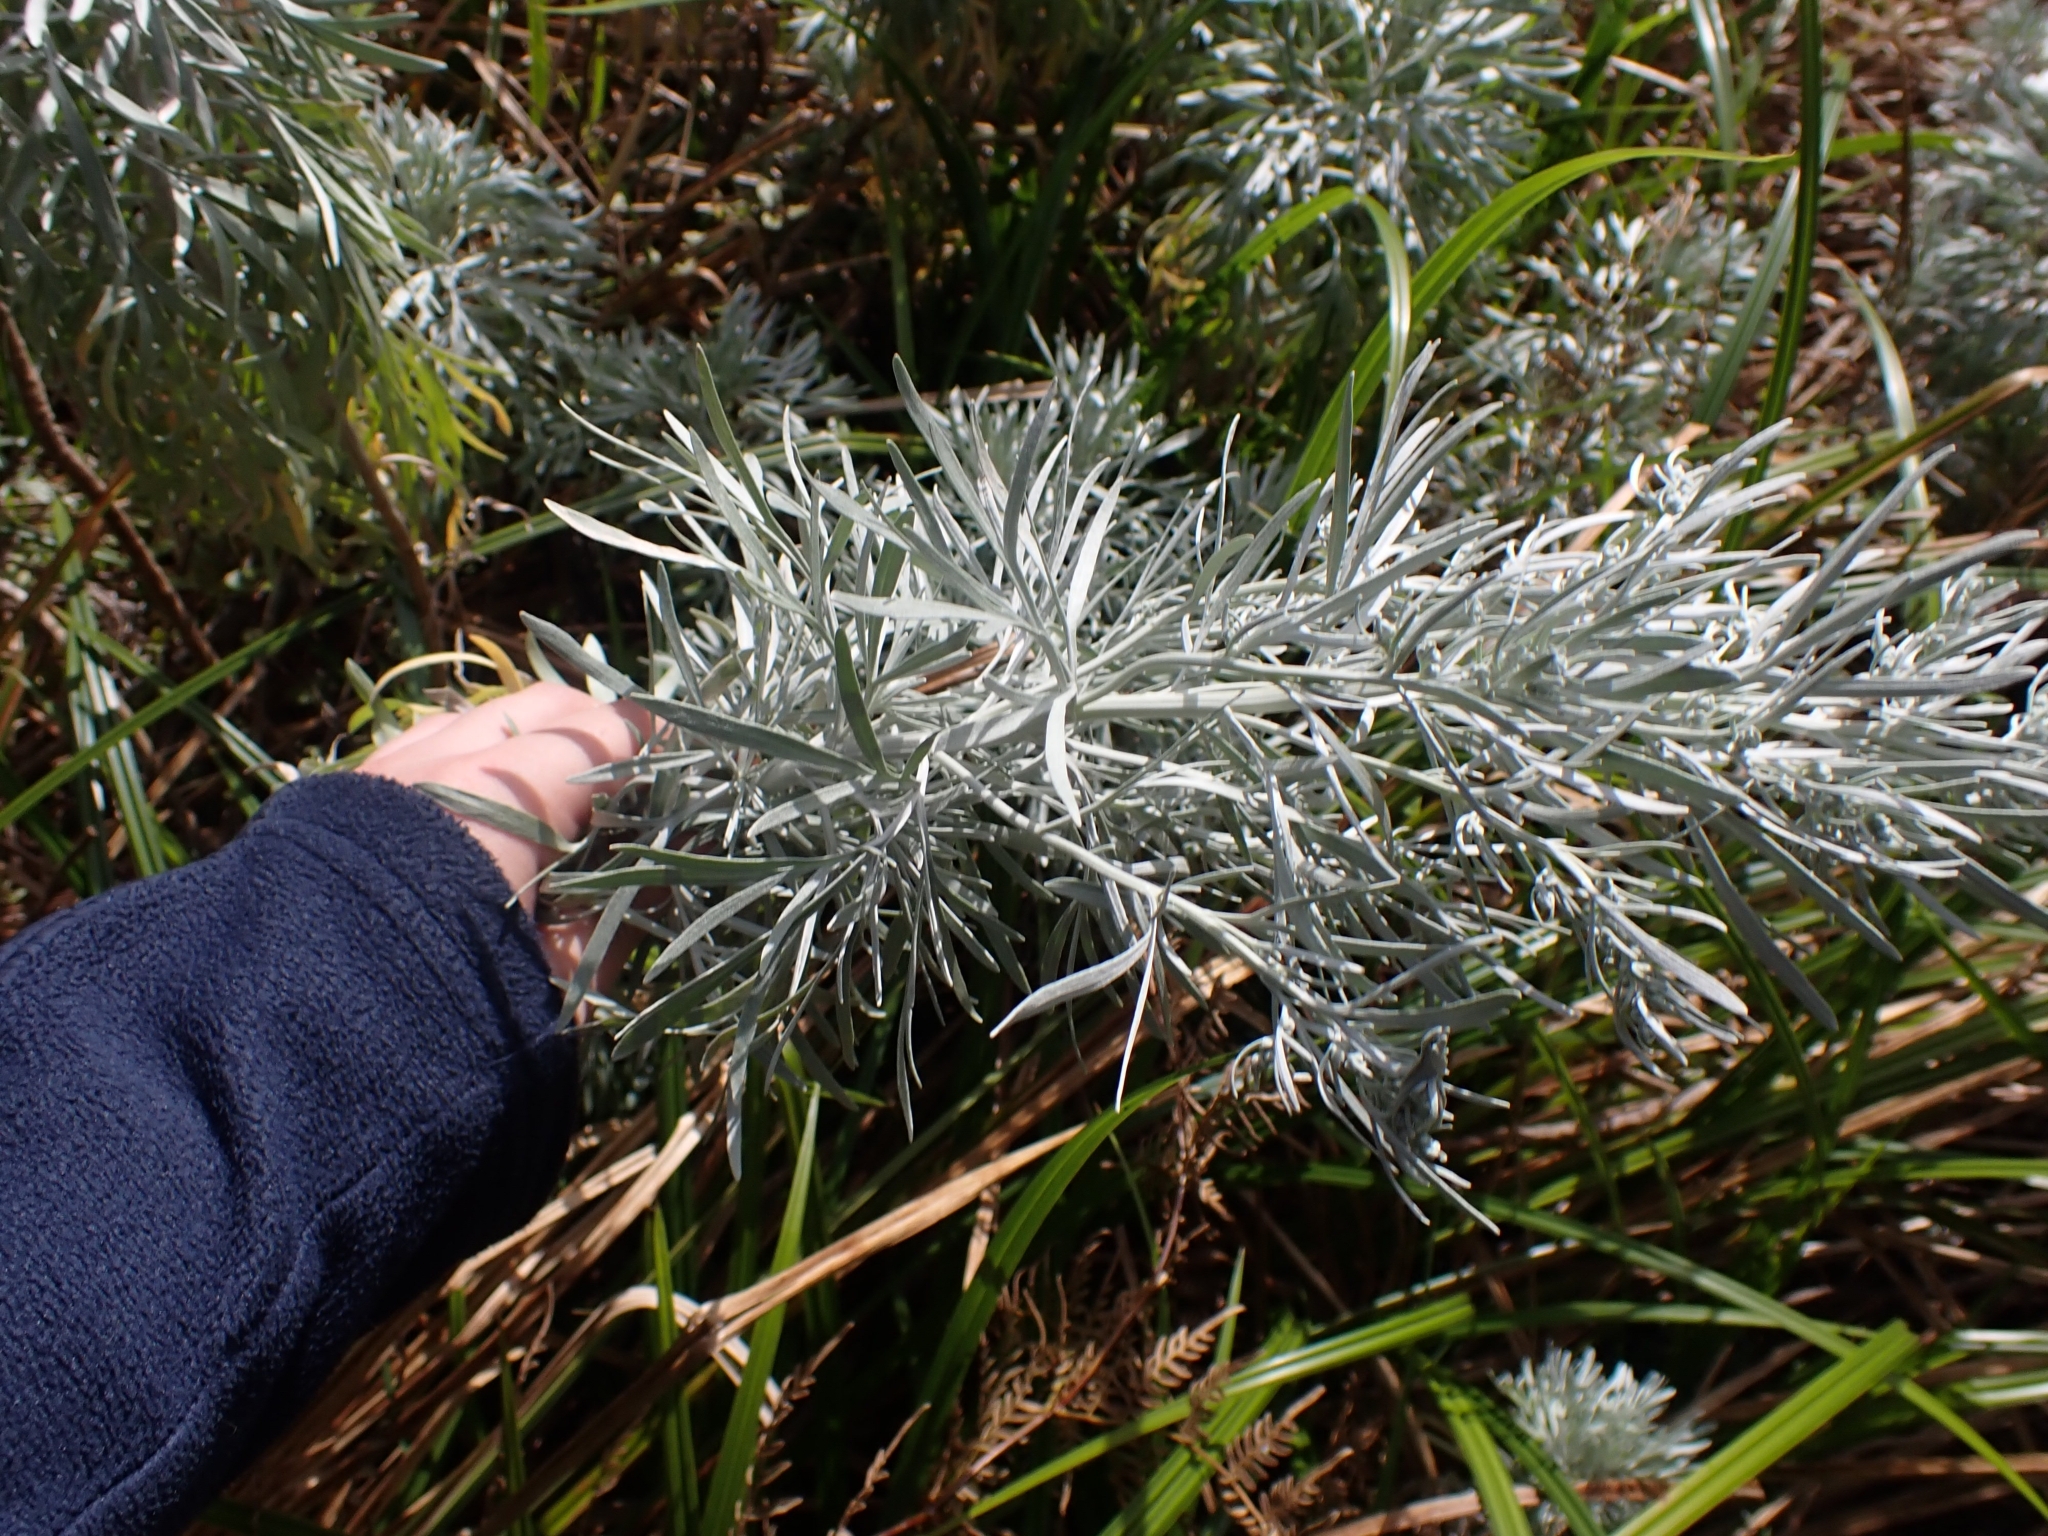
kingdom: Plantae
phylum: Tracheophyta
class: Magnoliopsida
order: Asterales
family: Asteraceae
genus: Artemisia
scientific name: Artemisia arborescens
